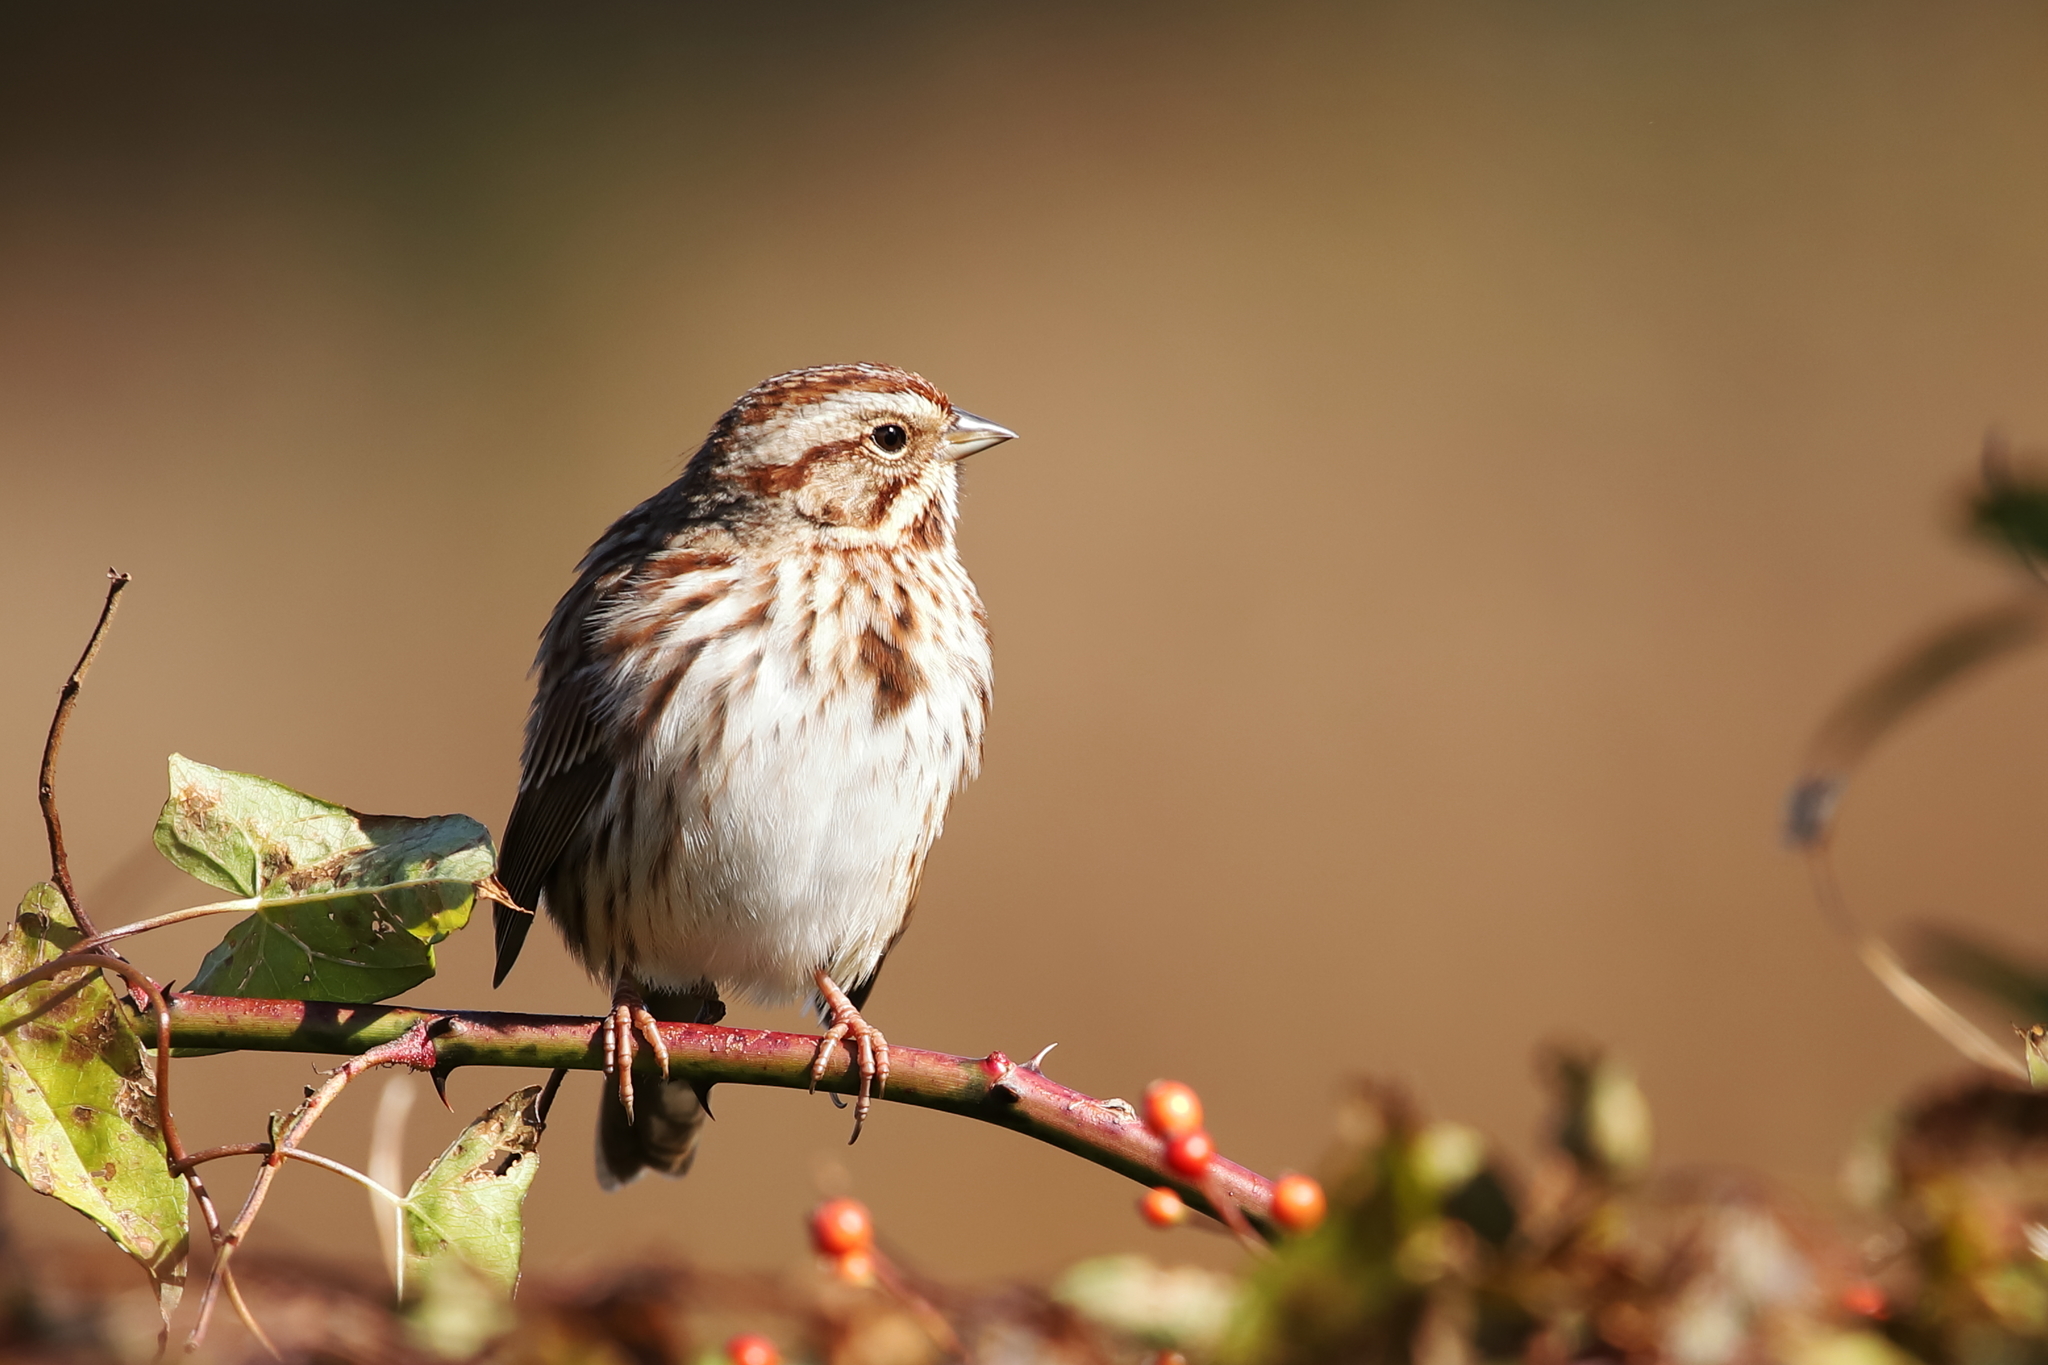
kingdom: Animalia
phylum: Chordata
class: Aves
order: Passeriformes
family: Passerellidae
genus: Melospiza
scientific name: Melospiza melodia
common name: Song sparrow
